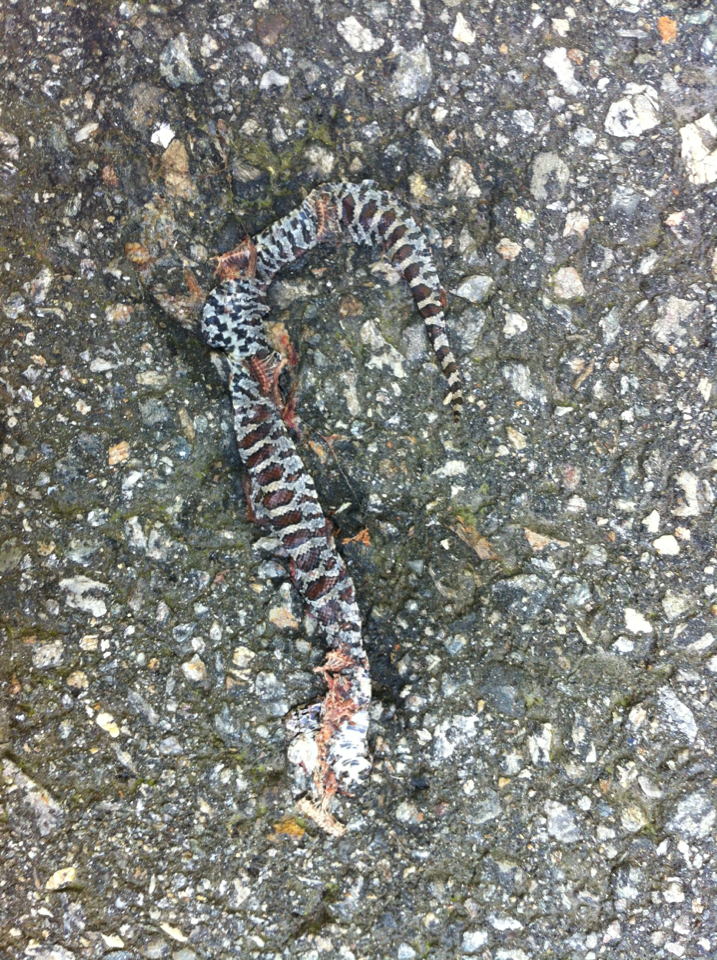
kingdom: Animalia
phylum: Chordata
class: Squamata
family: Colubridae
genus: Lampropeltis
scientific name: Lampropeltis triangulum
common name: Eastern milksnake
